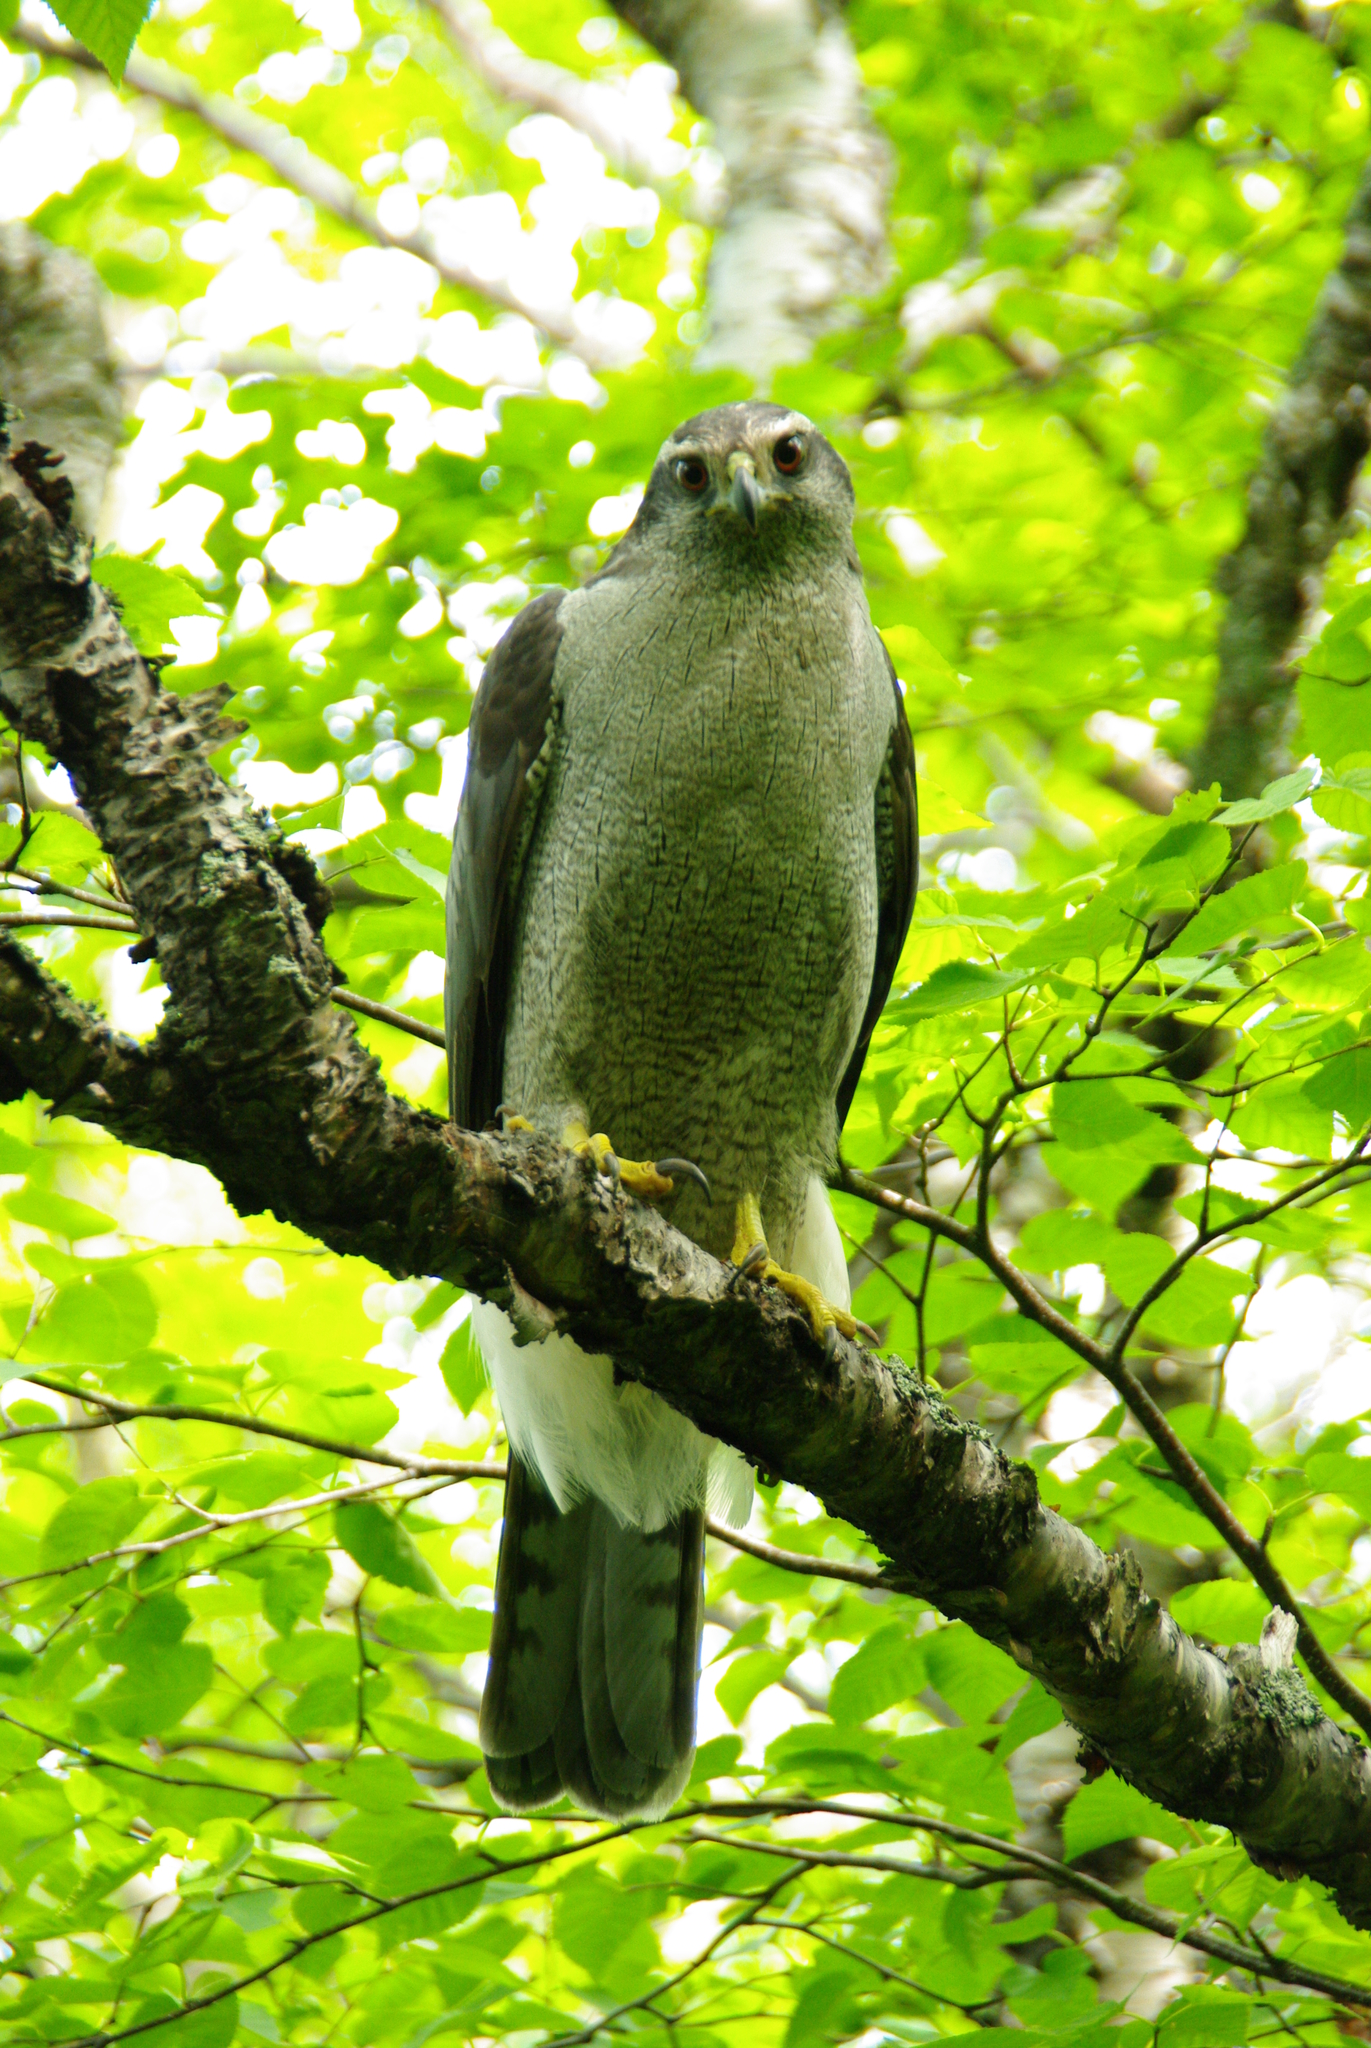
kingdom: Animalia
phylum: Chordata
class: Aves
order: Accipitriformes
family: Accipitridae
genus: Accipiter
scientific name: Accipiter gentilis
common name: Northern goshawk
